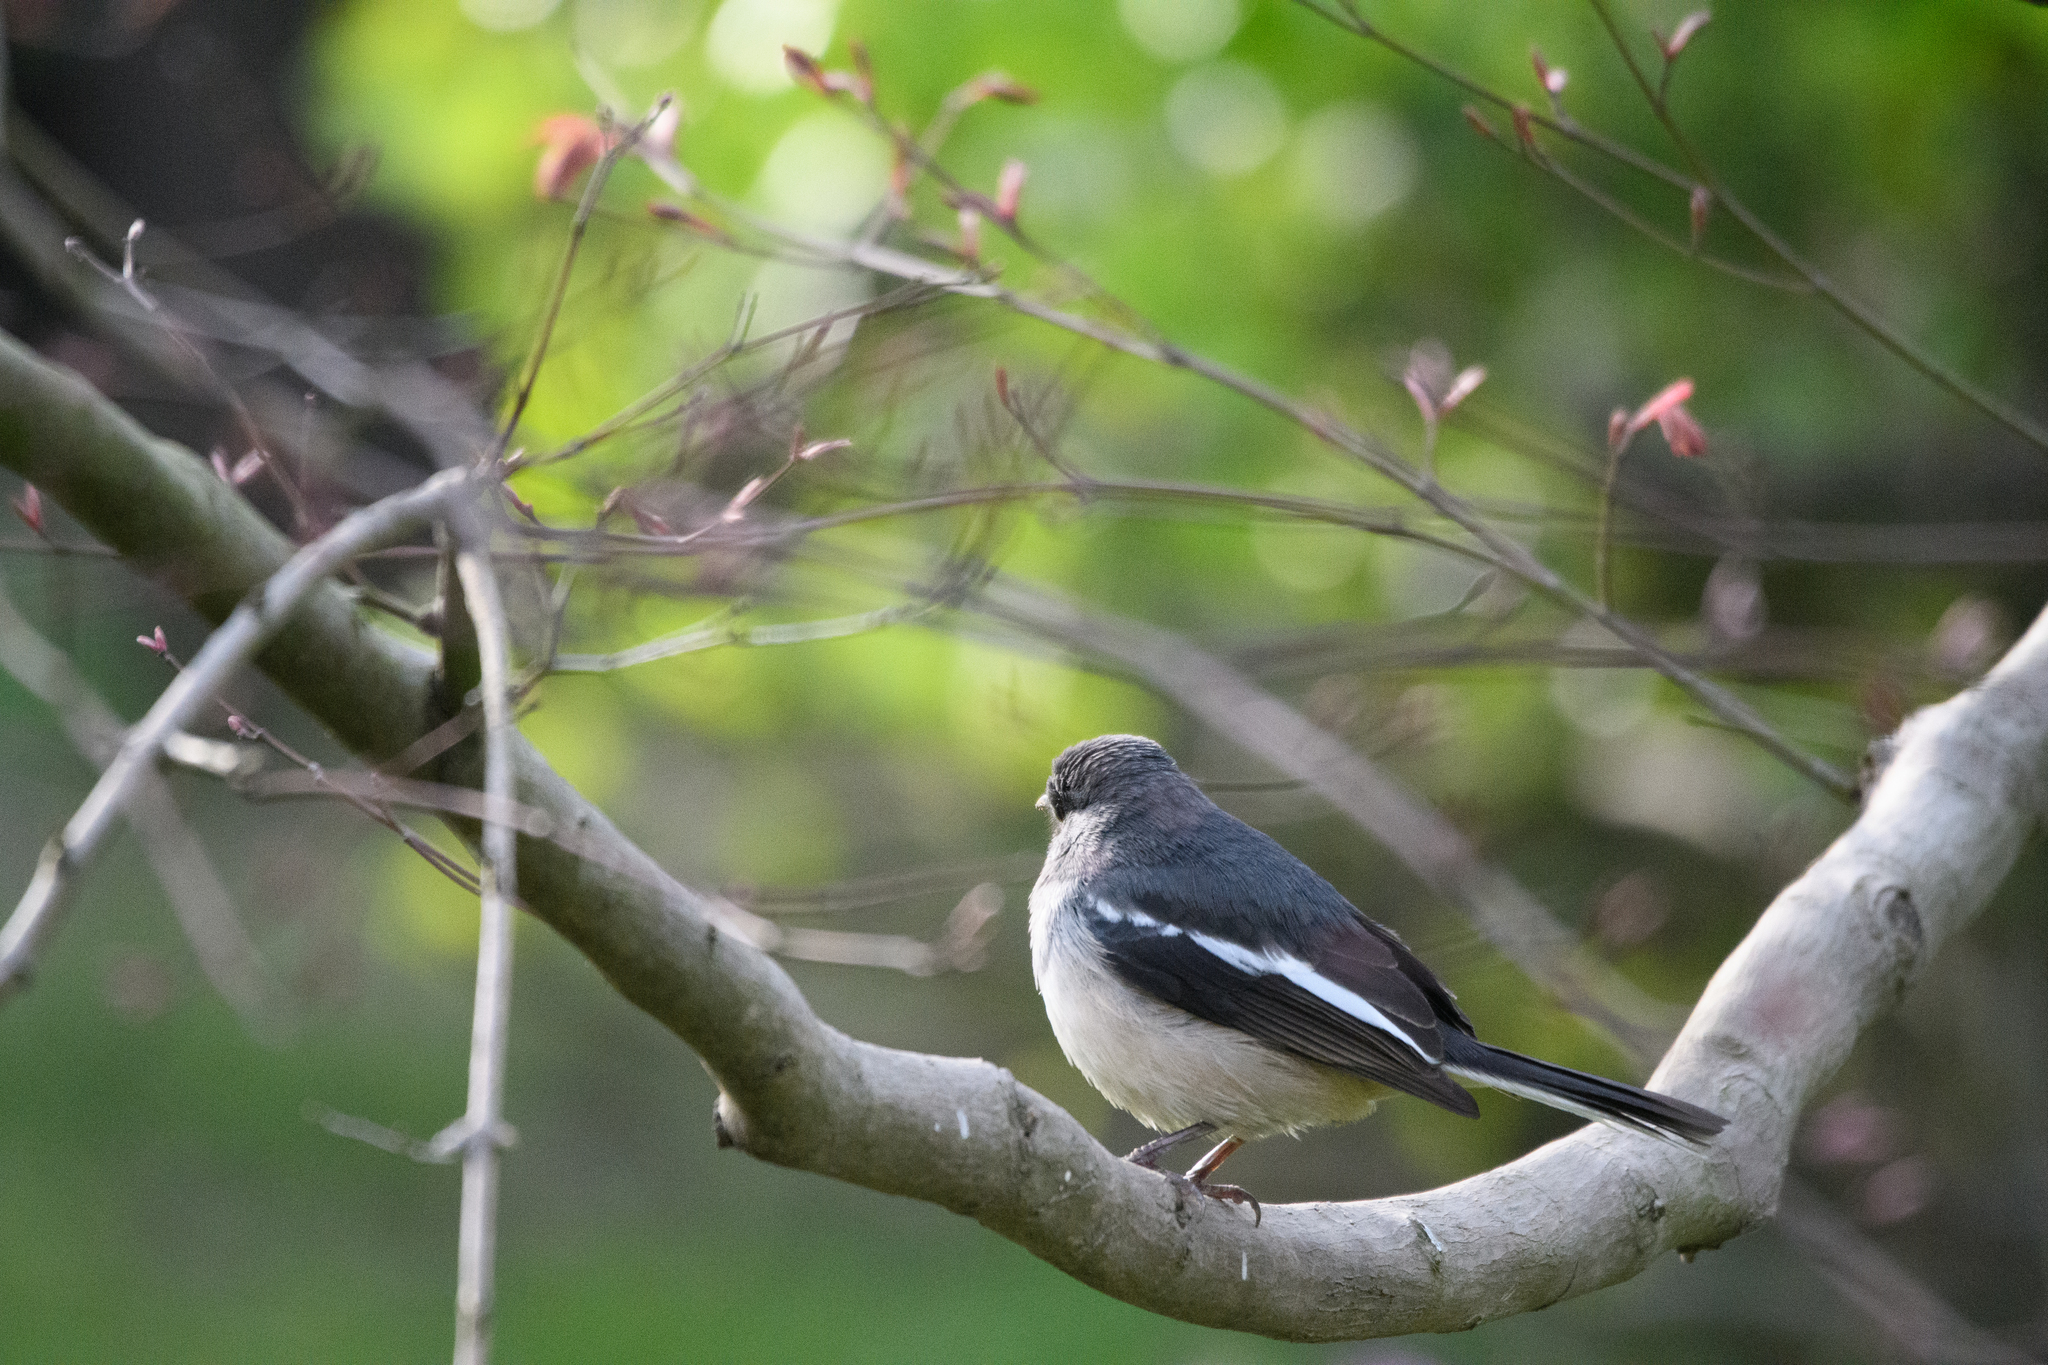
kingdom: Animalia
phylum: Chordata
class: Aves
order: Passeriformes
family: Muscicapidae
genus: Copsychus
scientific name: Copsychus saularis
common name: Oriental magpie-robin
